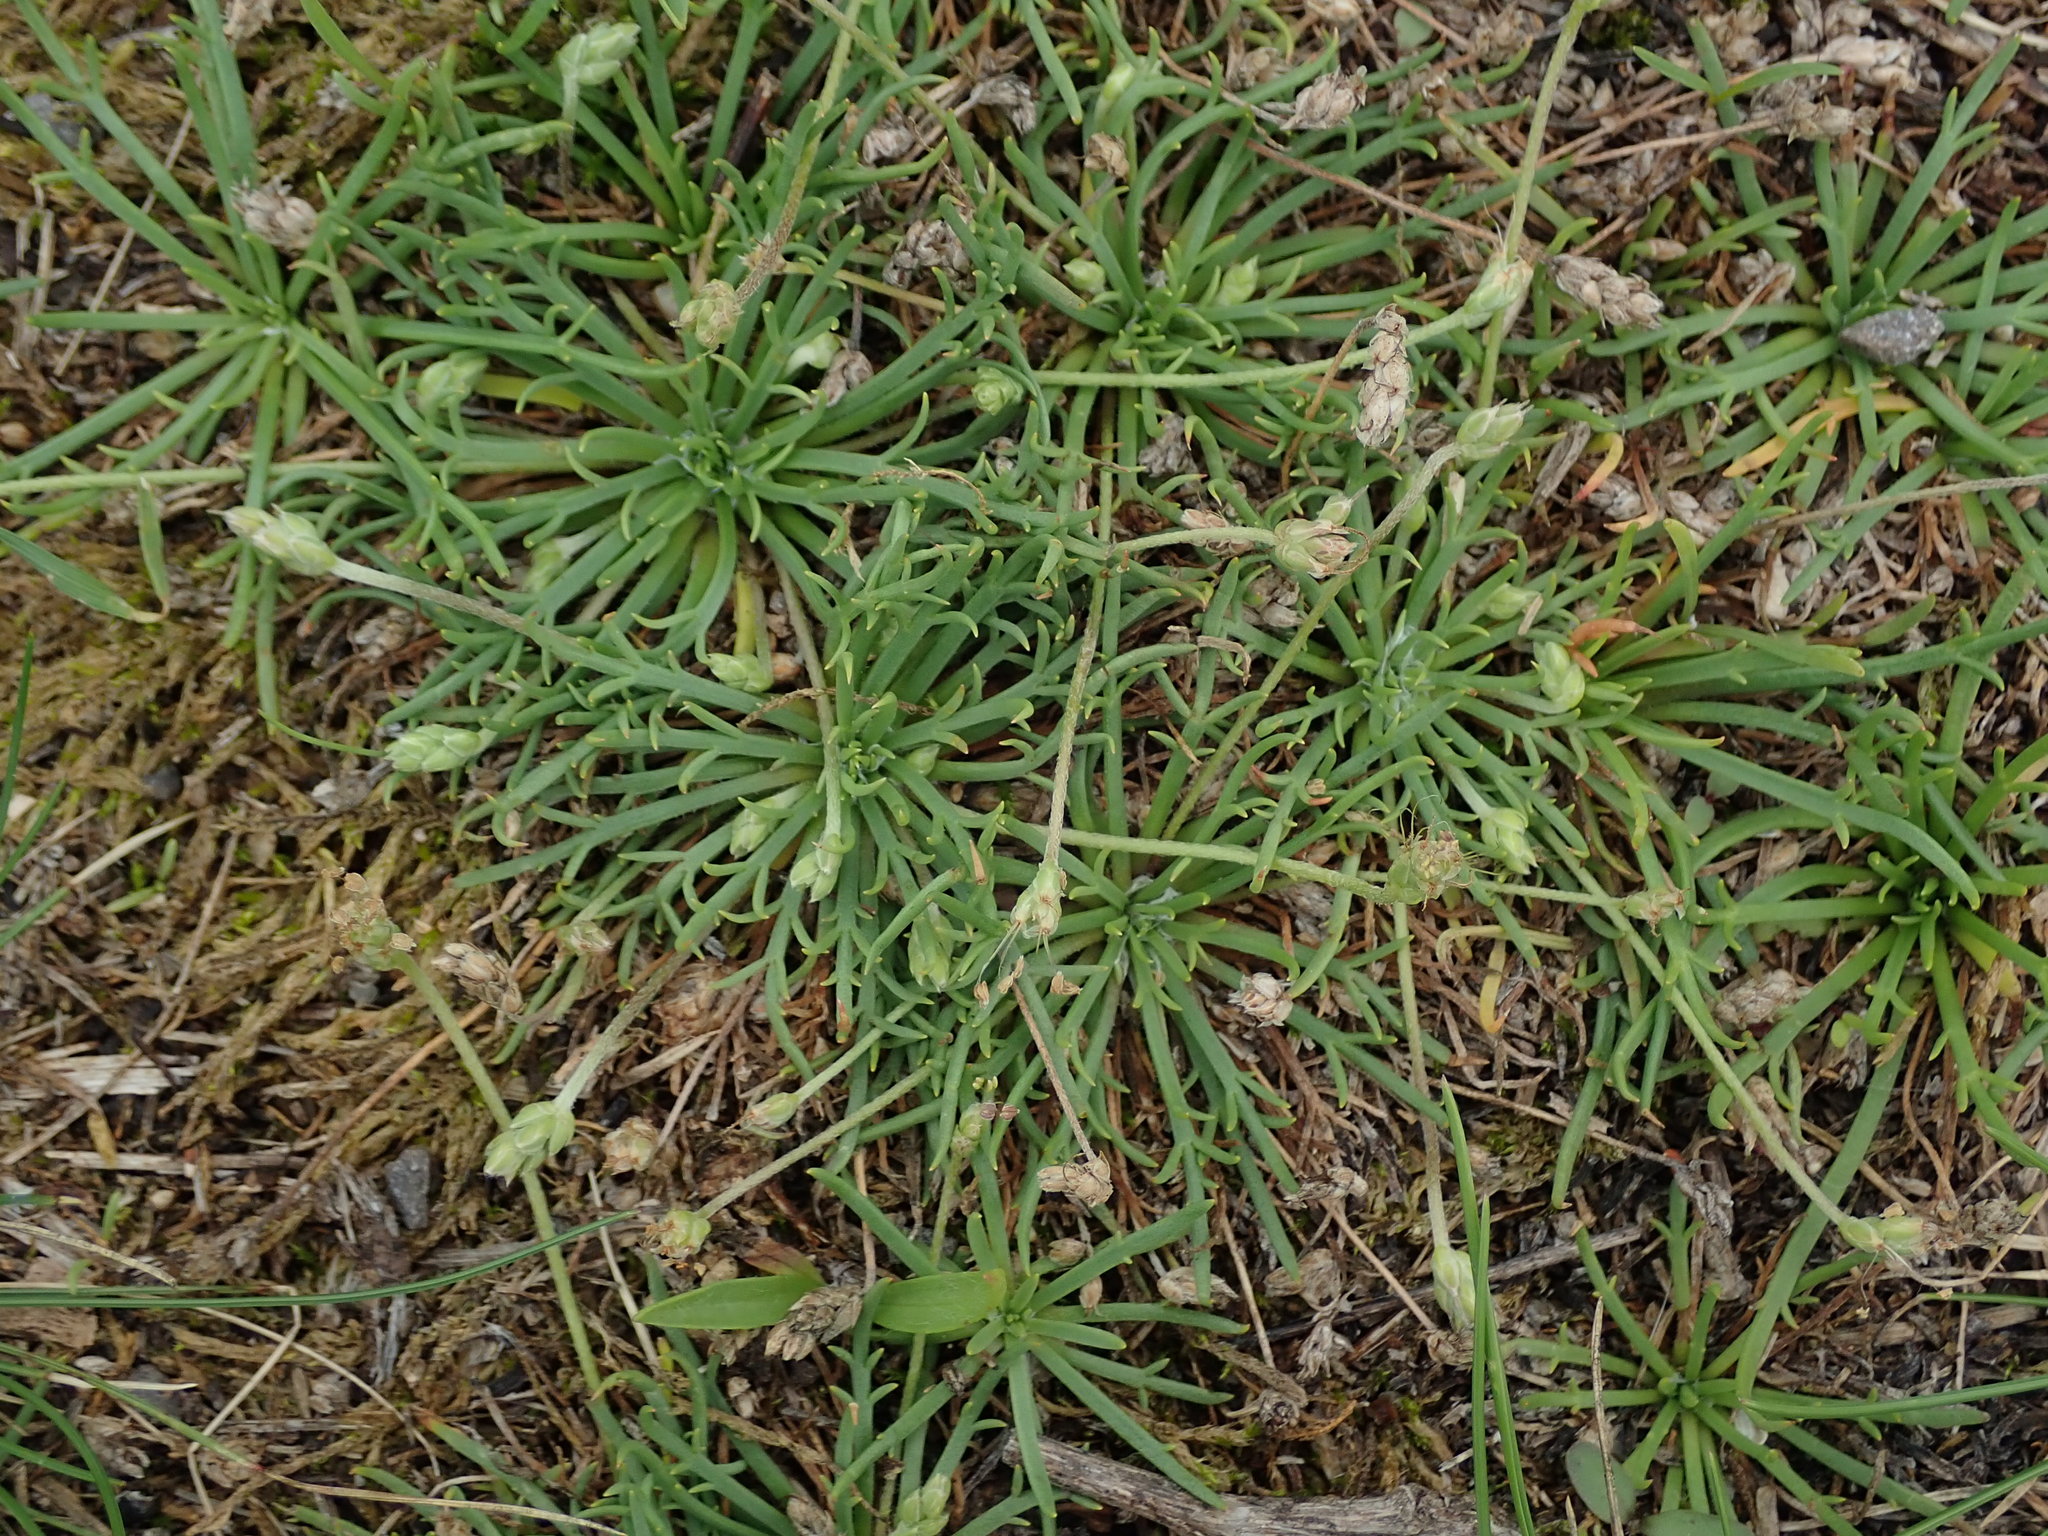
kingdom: Plantae
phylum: Tracheophyta
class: Magnoliopsida
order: Lamiales
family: Plantaginaceae
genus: Plantago
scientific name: Plantago coronopus
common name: Buck's-horn plantain
